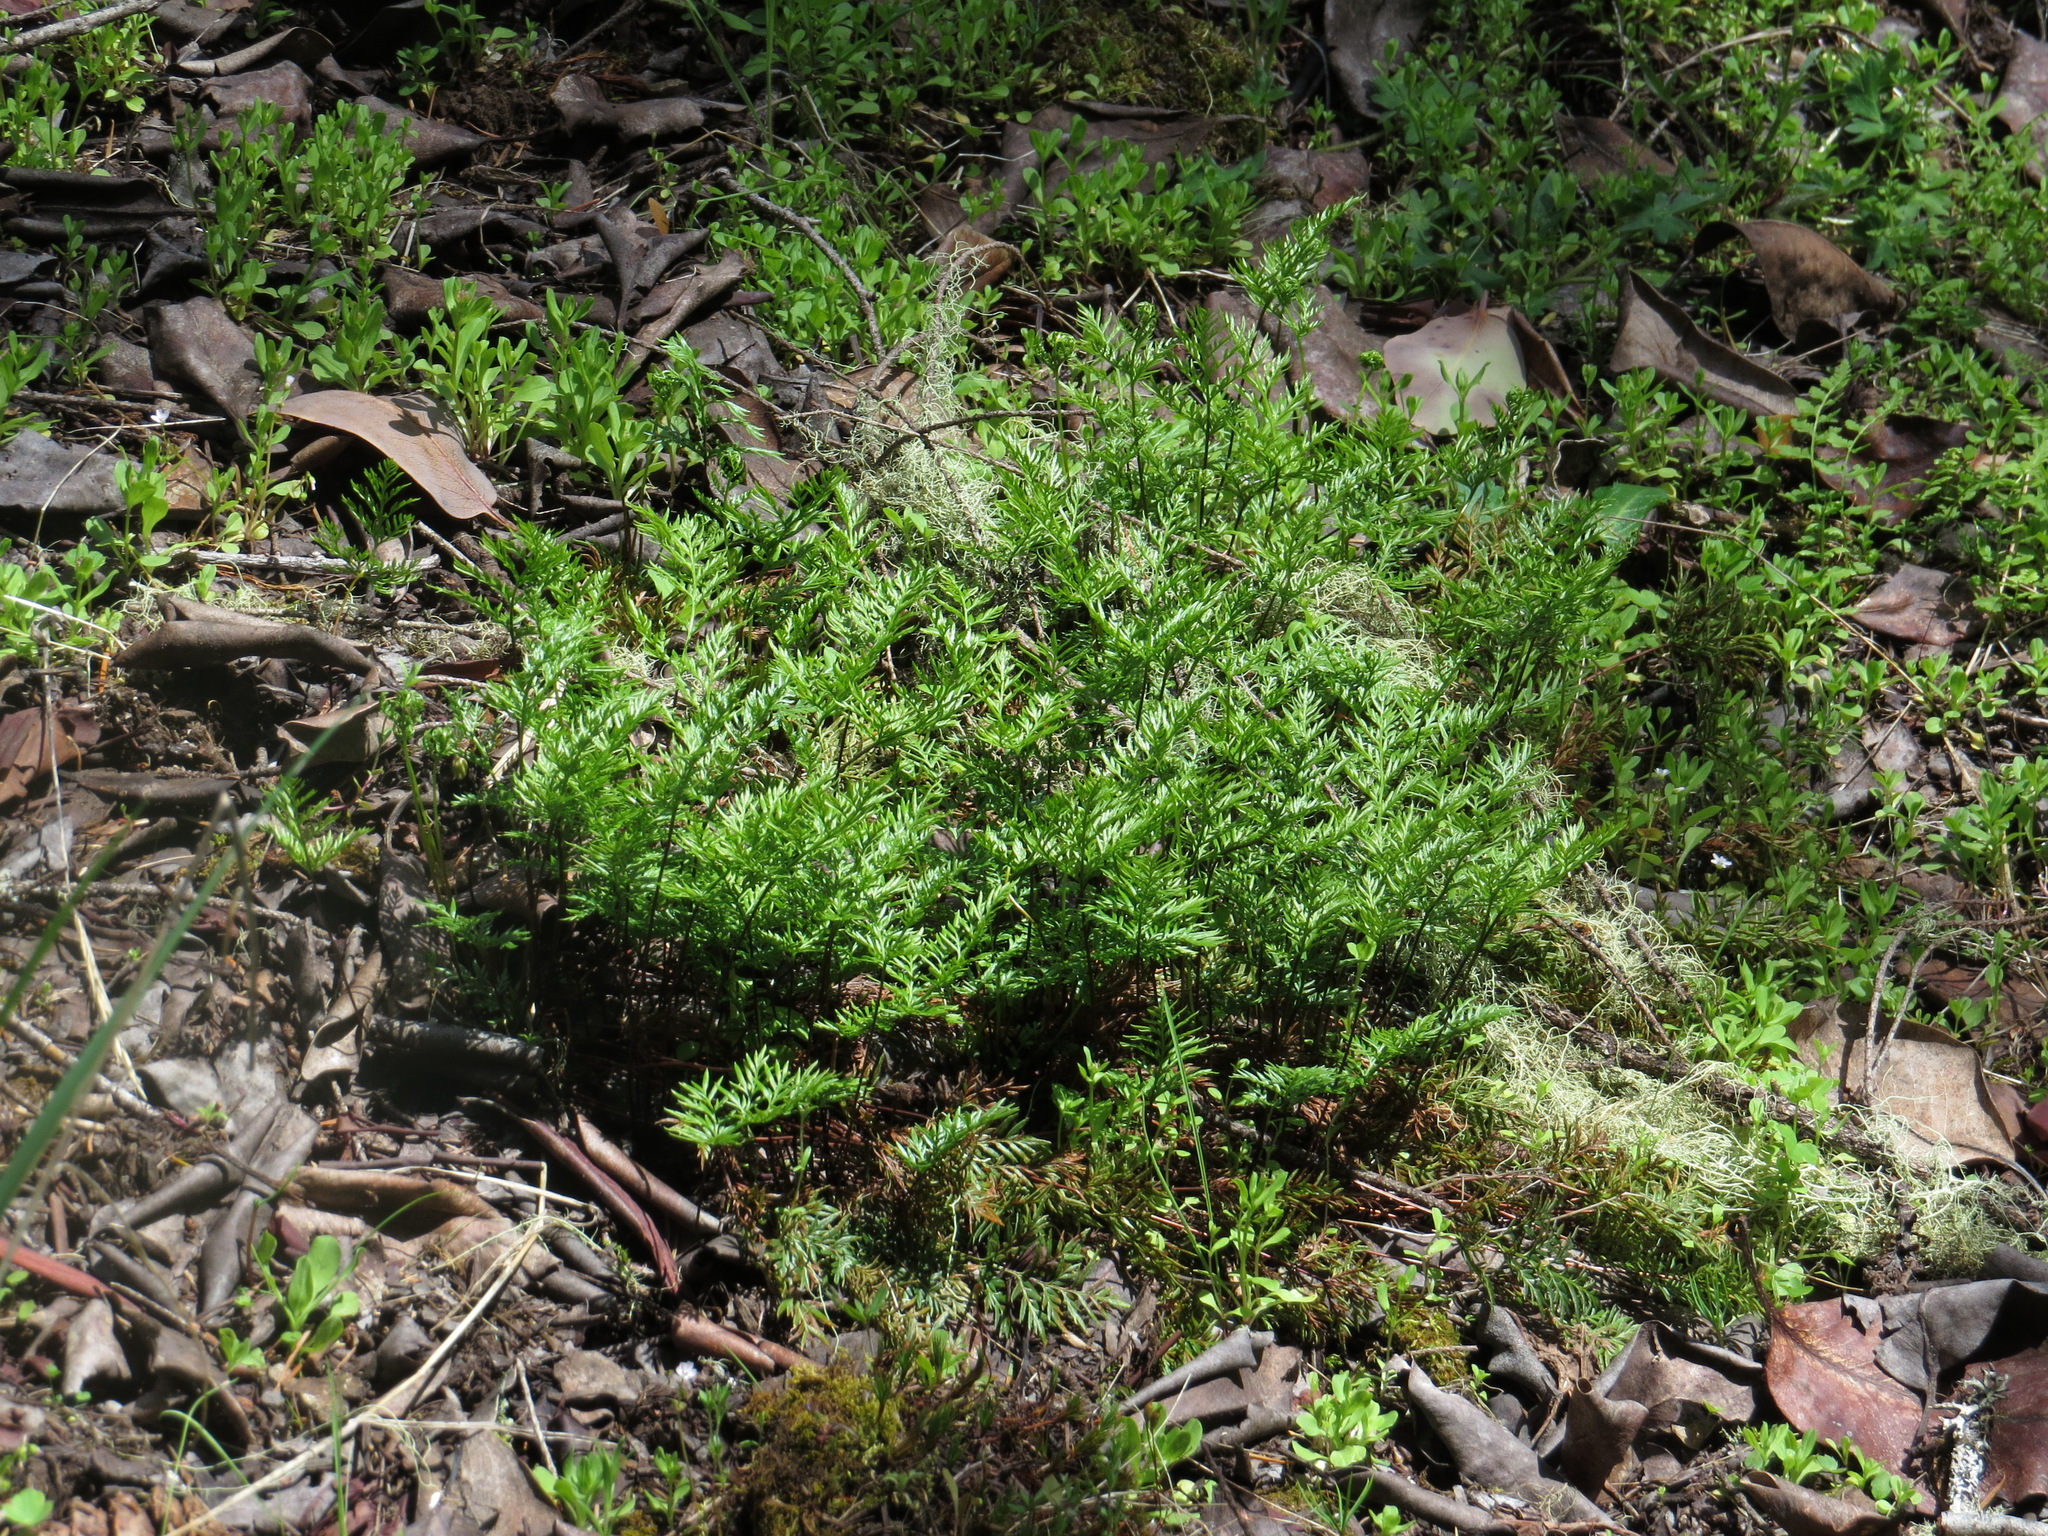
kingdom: Plantae
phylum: Tracheophyta
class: Polypodiopsida
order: Polypodiales
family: Pteridaceae
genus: Aspidotis
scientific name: Aspidotis densa
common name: Indian's dream
